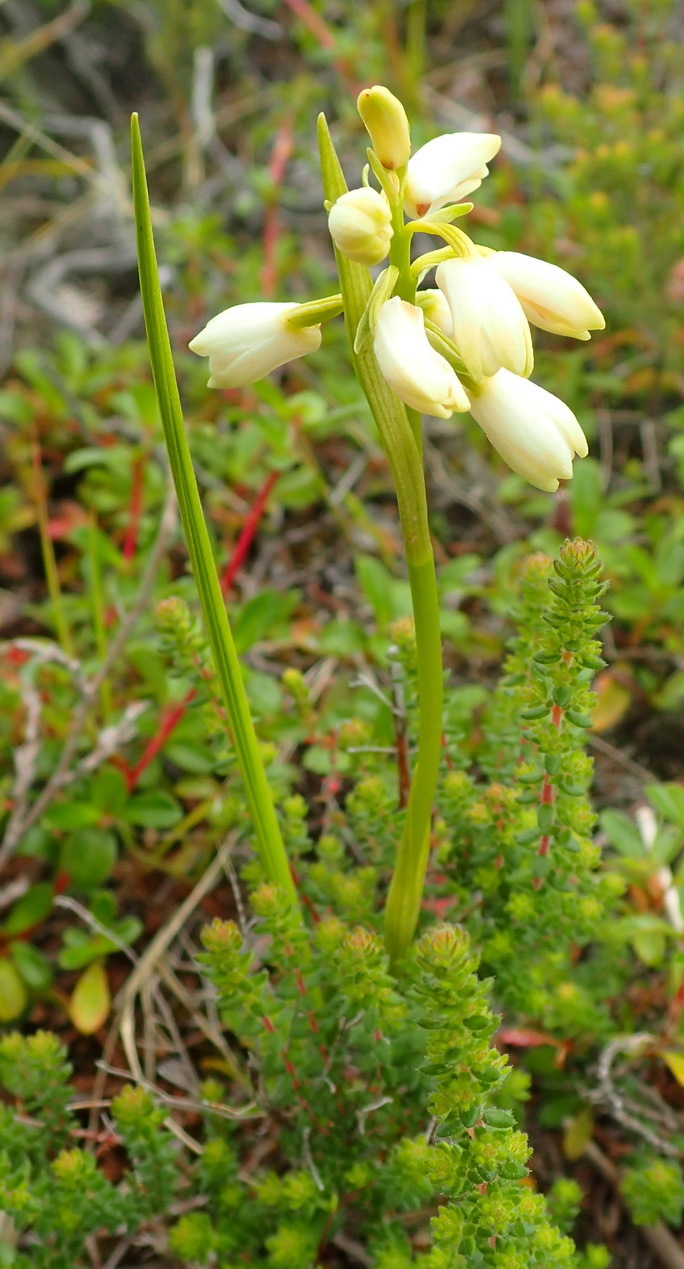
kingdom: Plantae
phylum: Tracheophyta
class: Liliopsida
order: Asparagales
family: Orchidaceae
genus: Eulophia
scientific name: Eulophia aculeata
